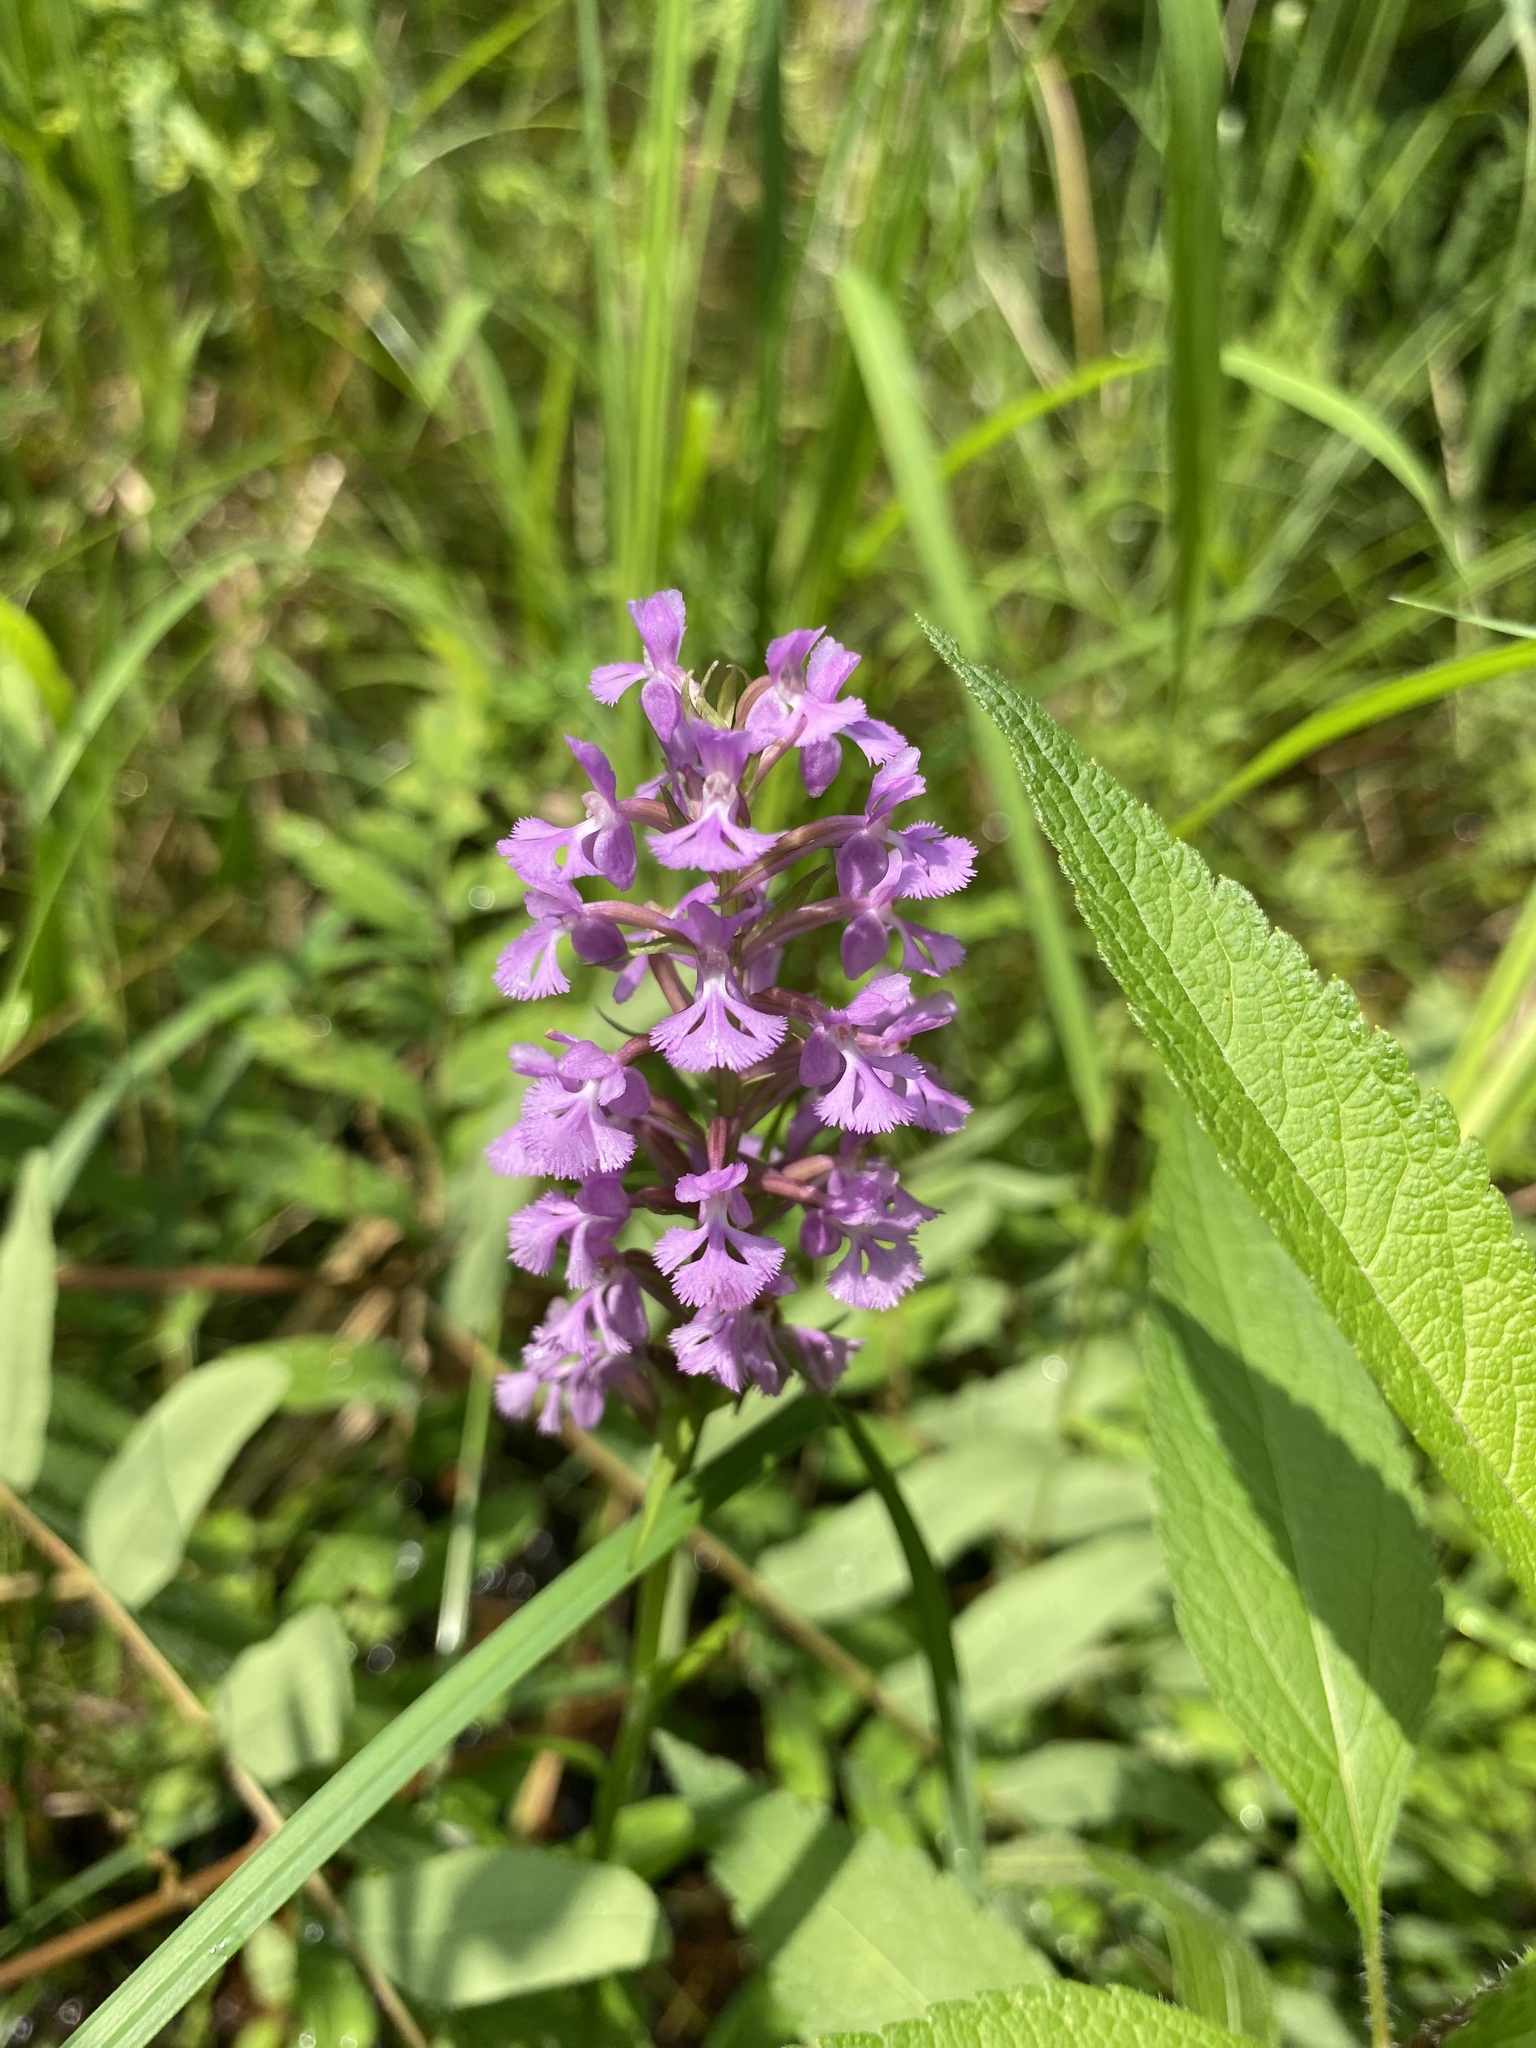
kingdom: Plantae
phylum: Tracheophyta
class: Liliopsida
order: Asparagales
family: Orchidaceae
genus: Platanthera
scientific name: Platanthera psycodes
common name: Lesser purple fringed orchid
